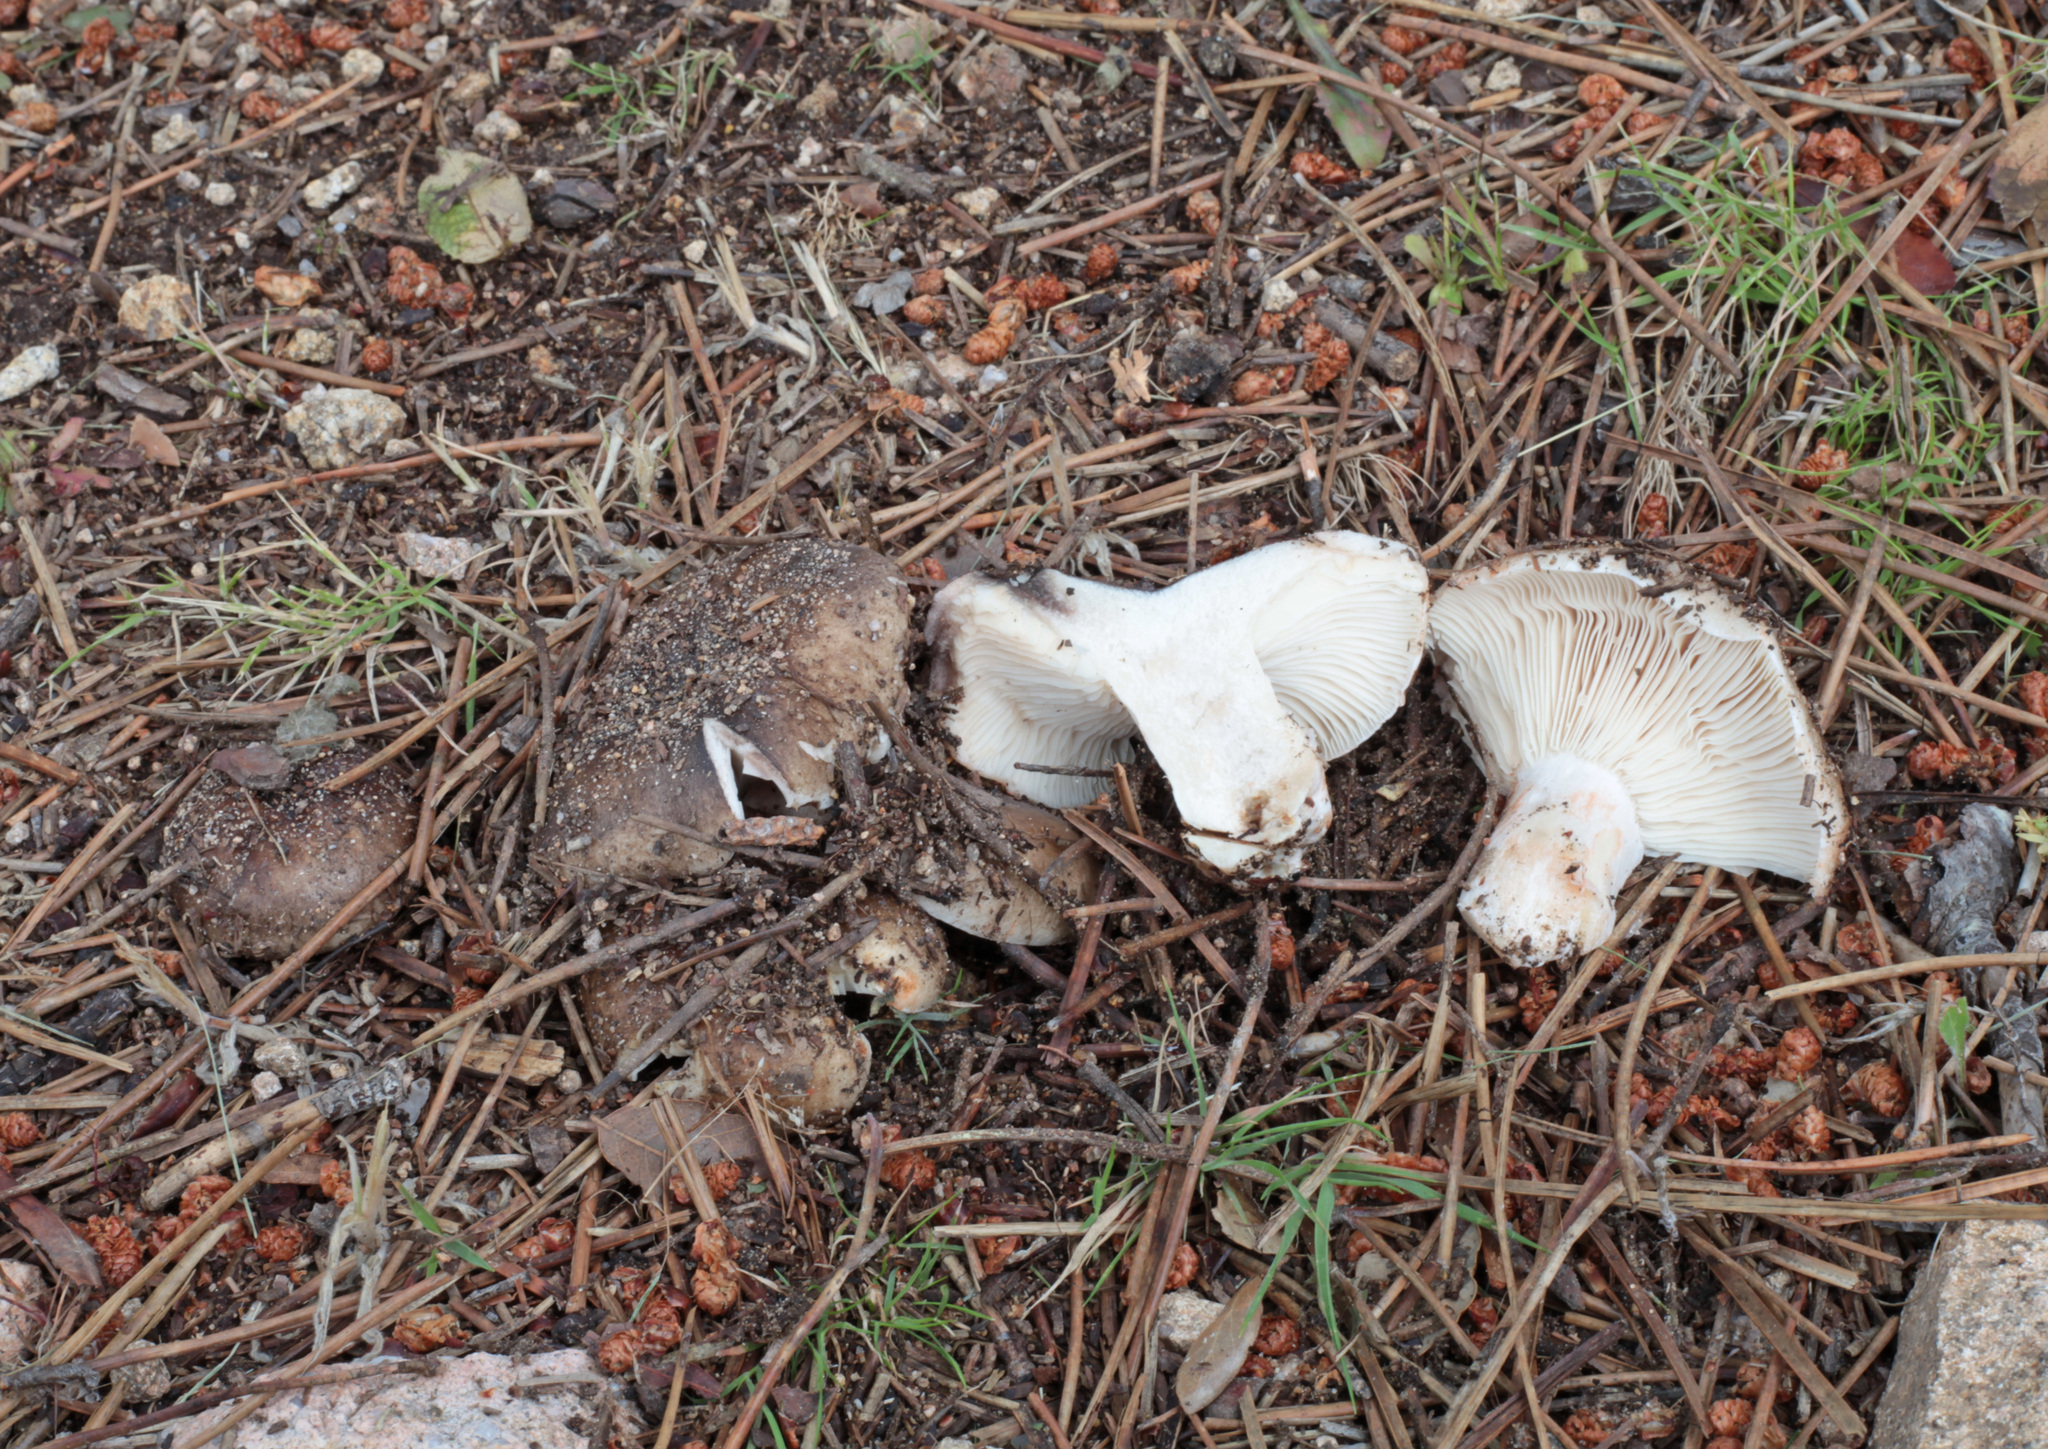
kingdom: Fungi
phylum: Basidiomycota
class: Agaricomycetes
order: Russulales
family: Russulaceae
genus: Russula
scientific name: Russula acrifolia
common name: Hotlips brittlegill
